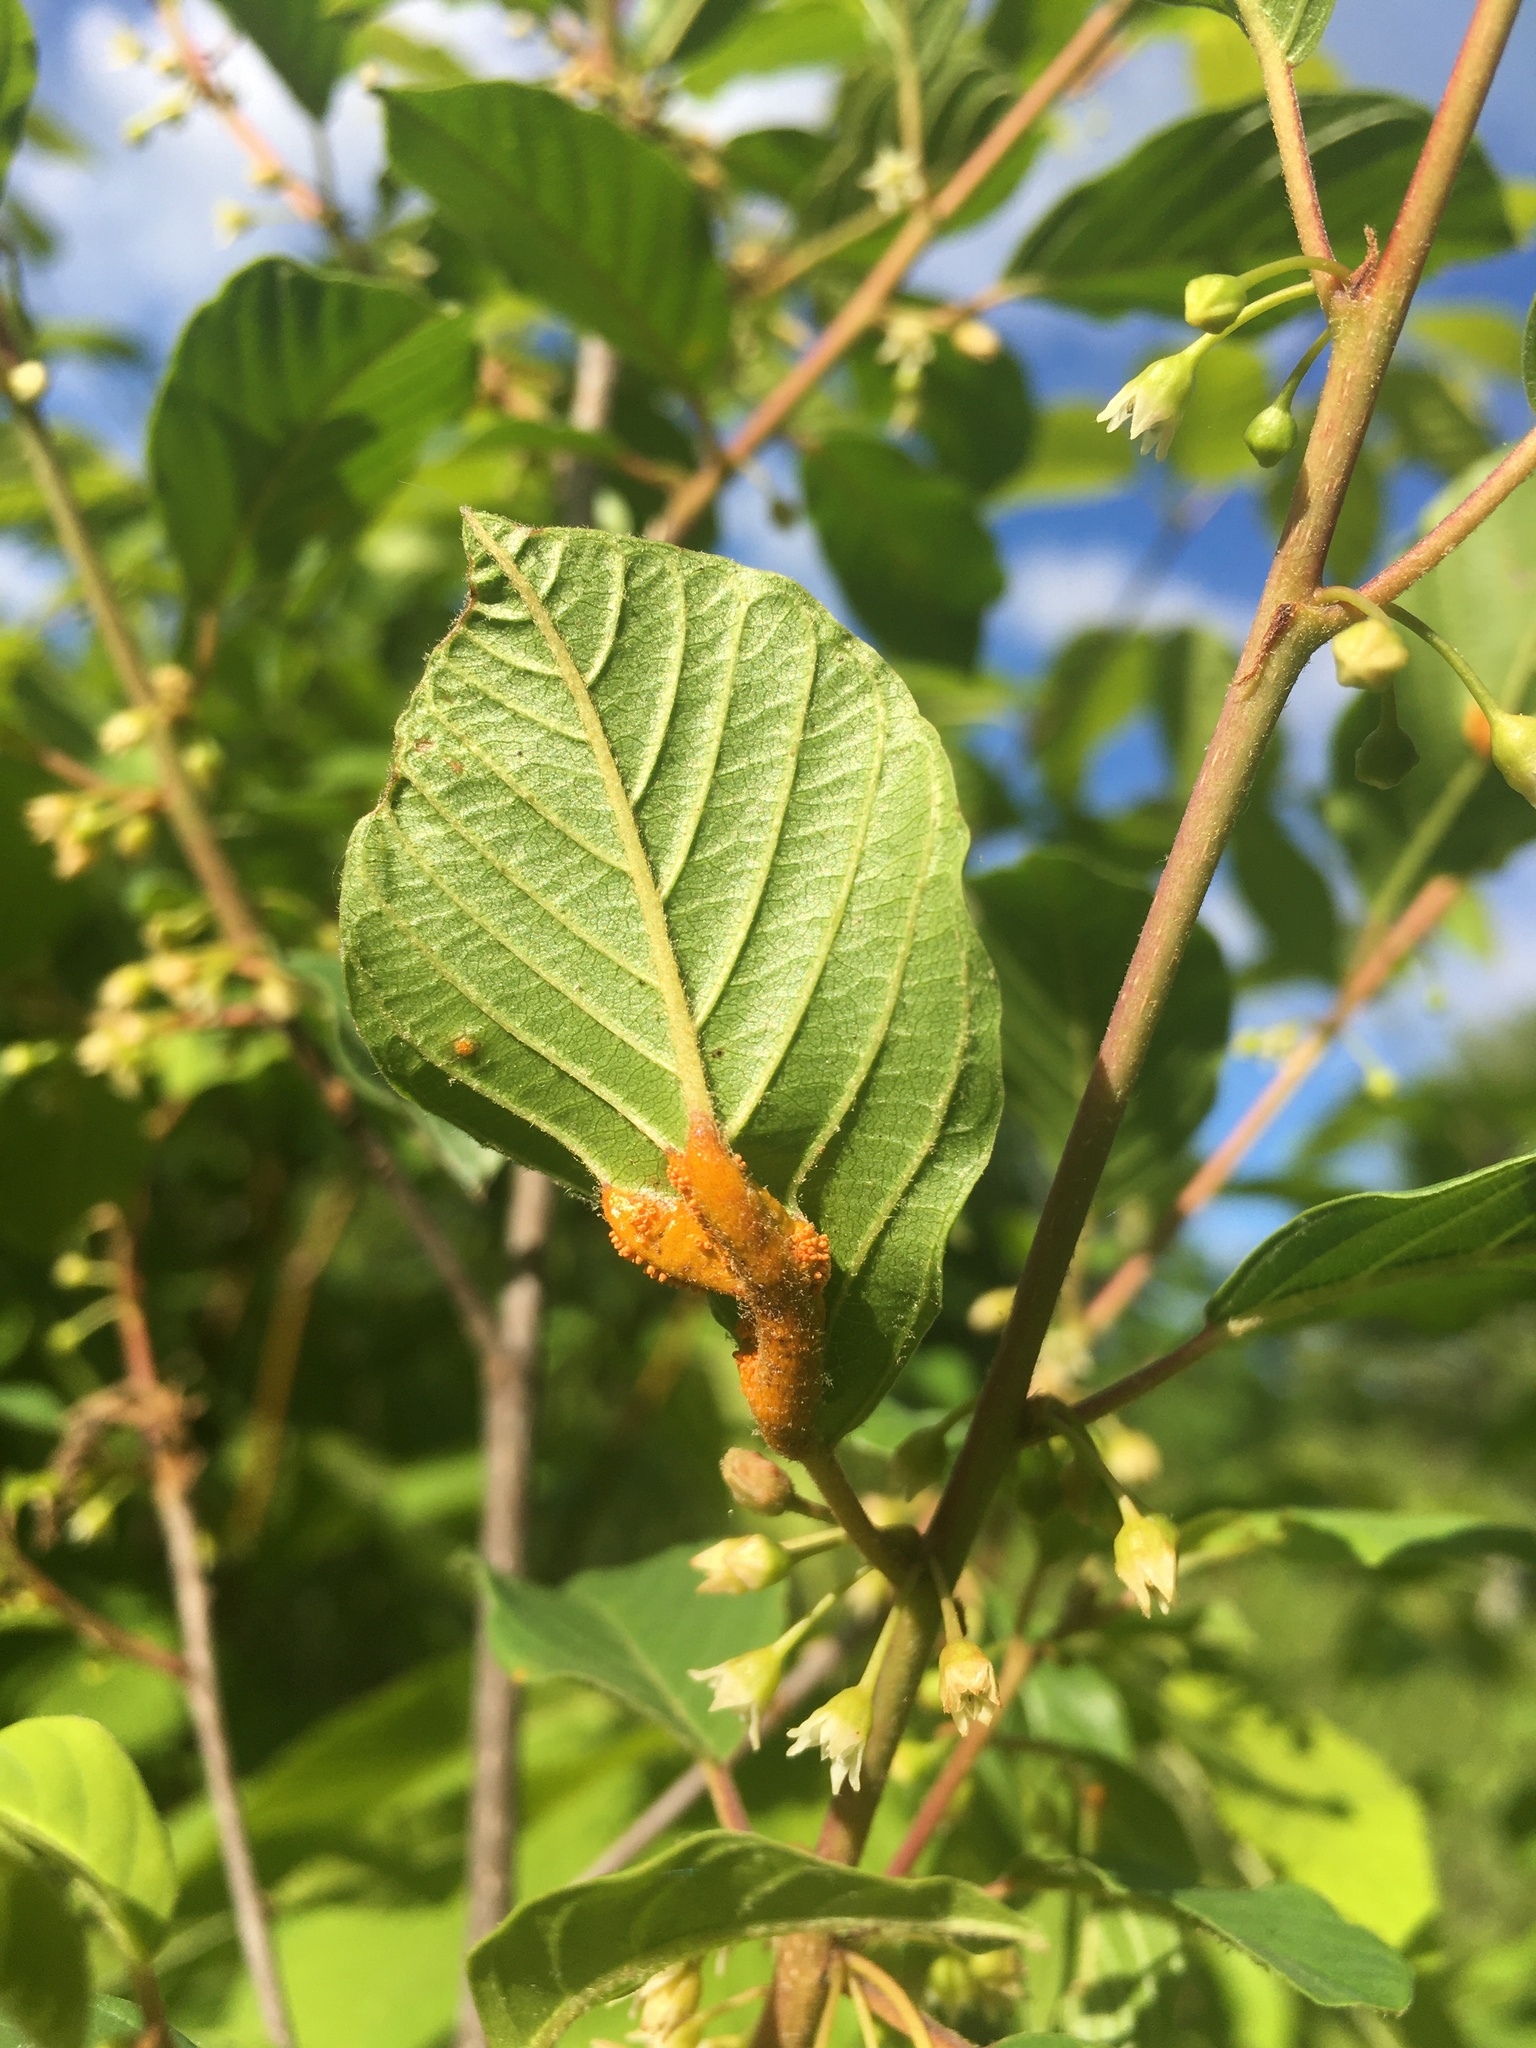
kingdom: Fungi
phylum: Basidiomycota
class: Pucciniomycetes
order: Pucciniales
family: Pucciniaceae
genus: Puccinia
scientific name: Puccinia coronata
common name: Crown rust
